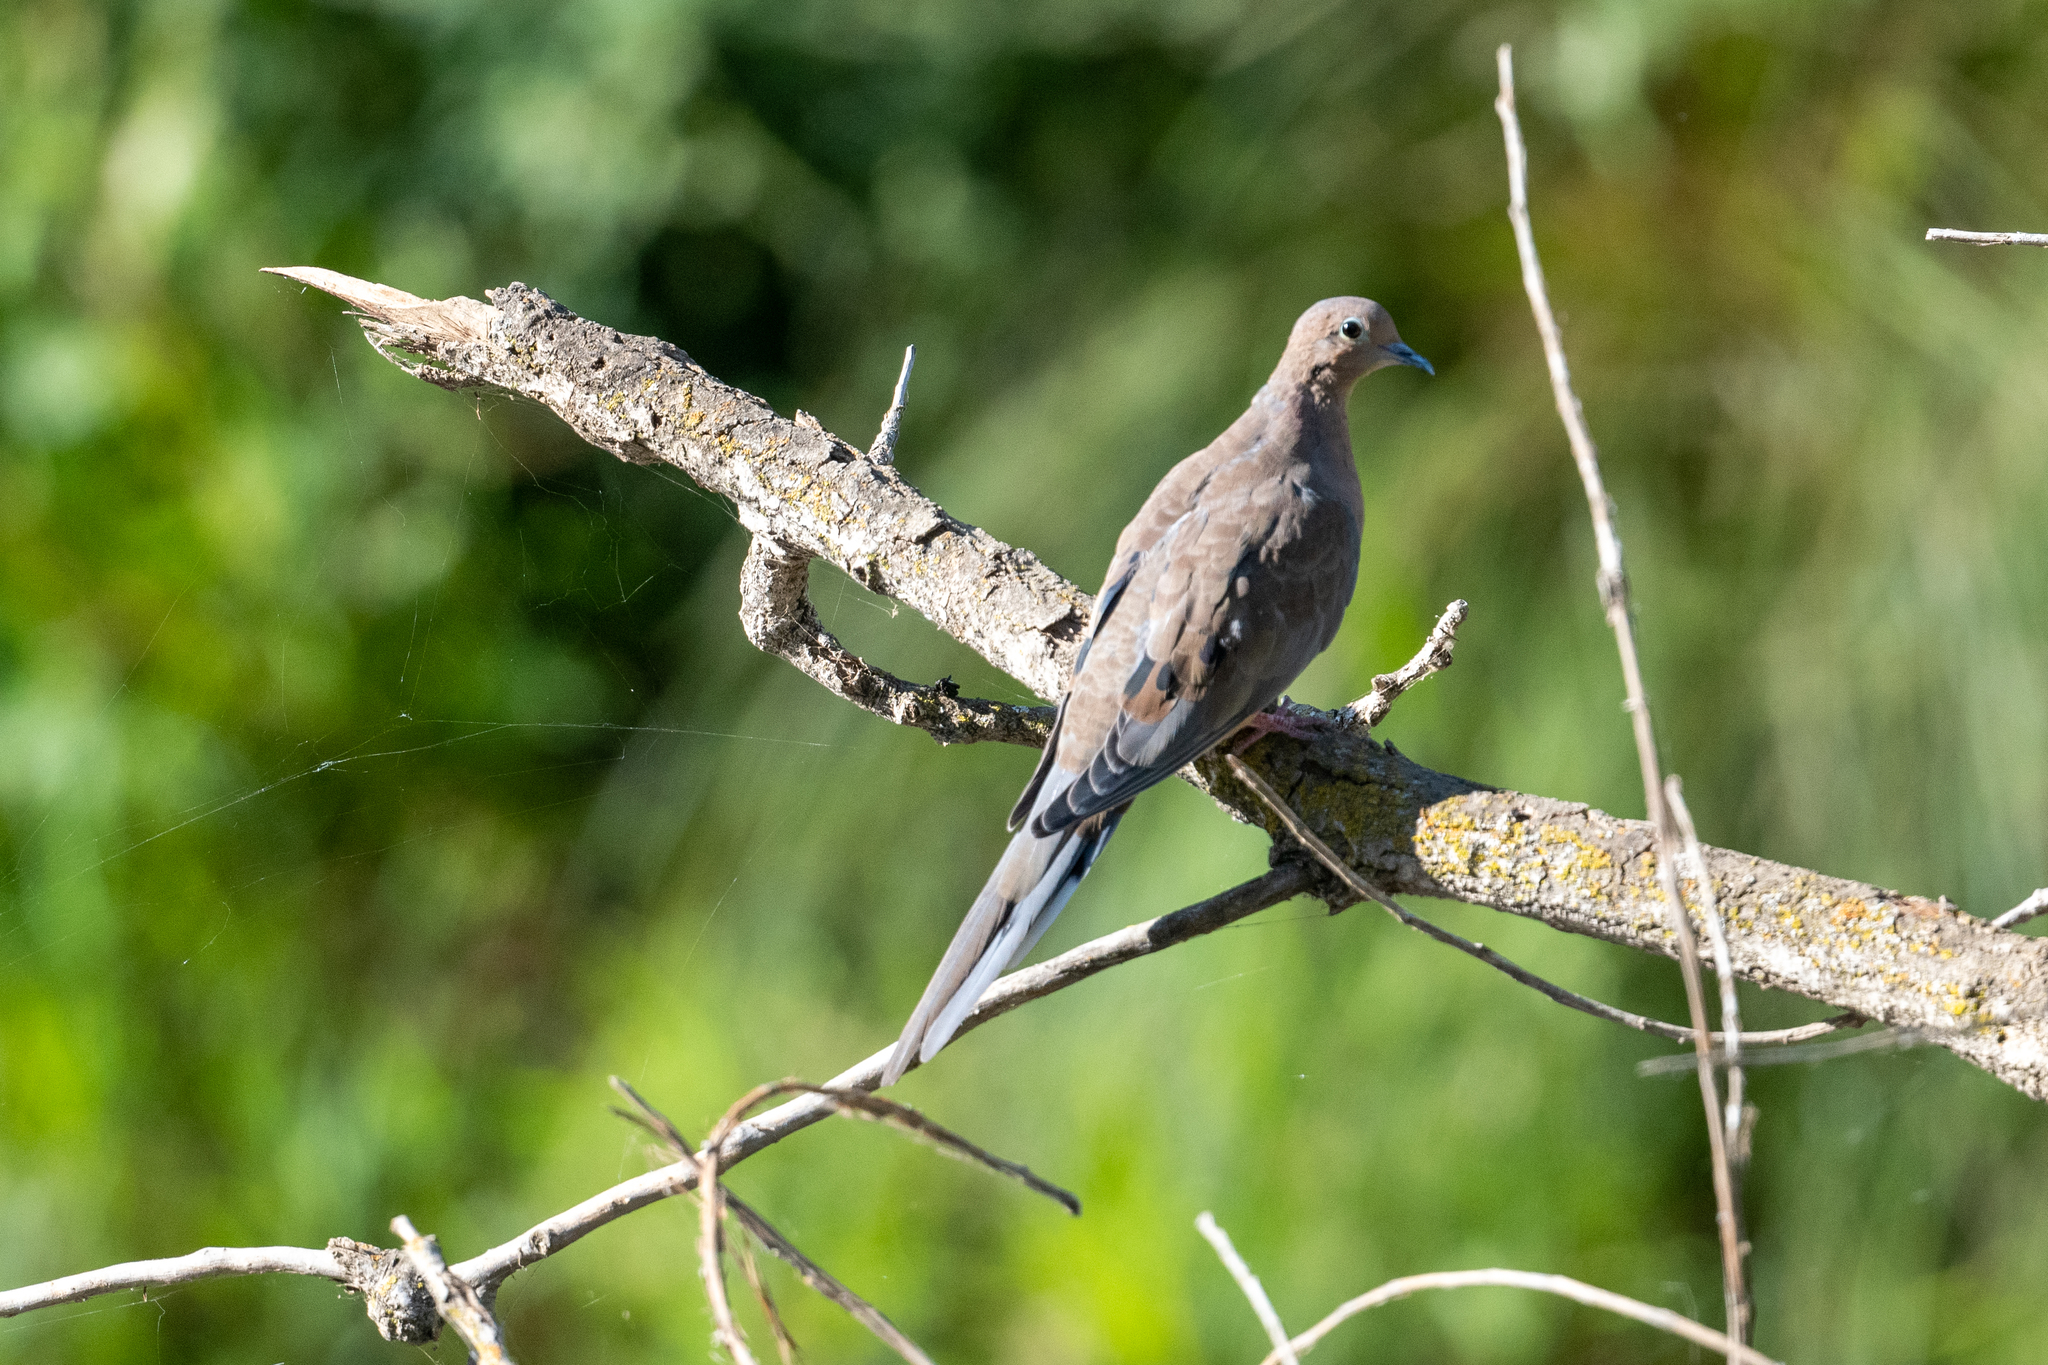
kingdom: Animalia
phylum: Chordata
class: Aves
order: Columbiformes
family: Columbidae
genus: Zenaida
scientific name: Zenaida macroura
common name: Mourning dove
